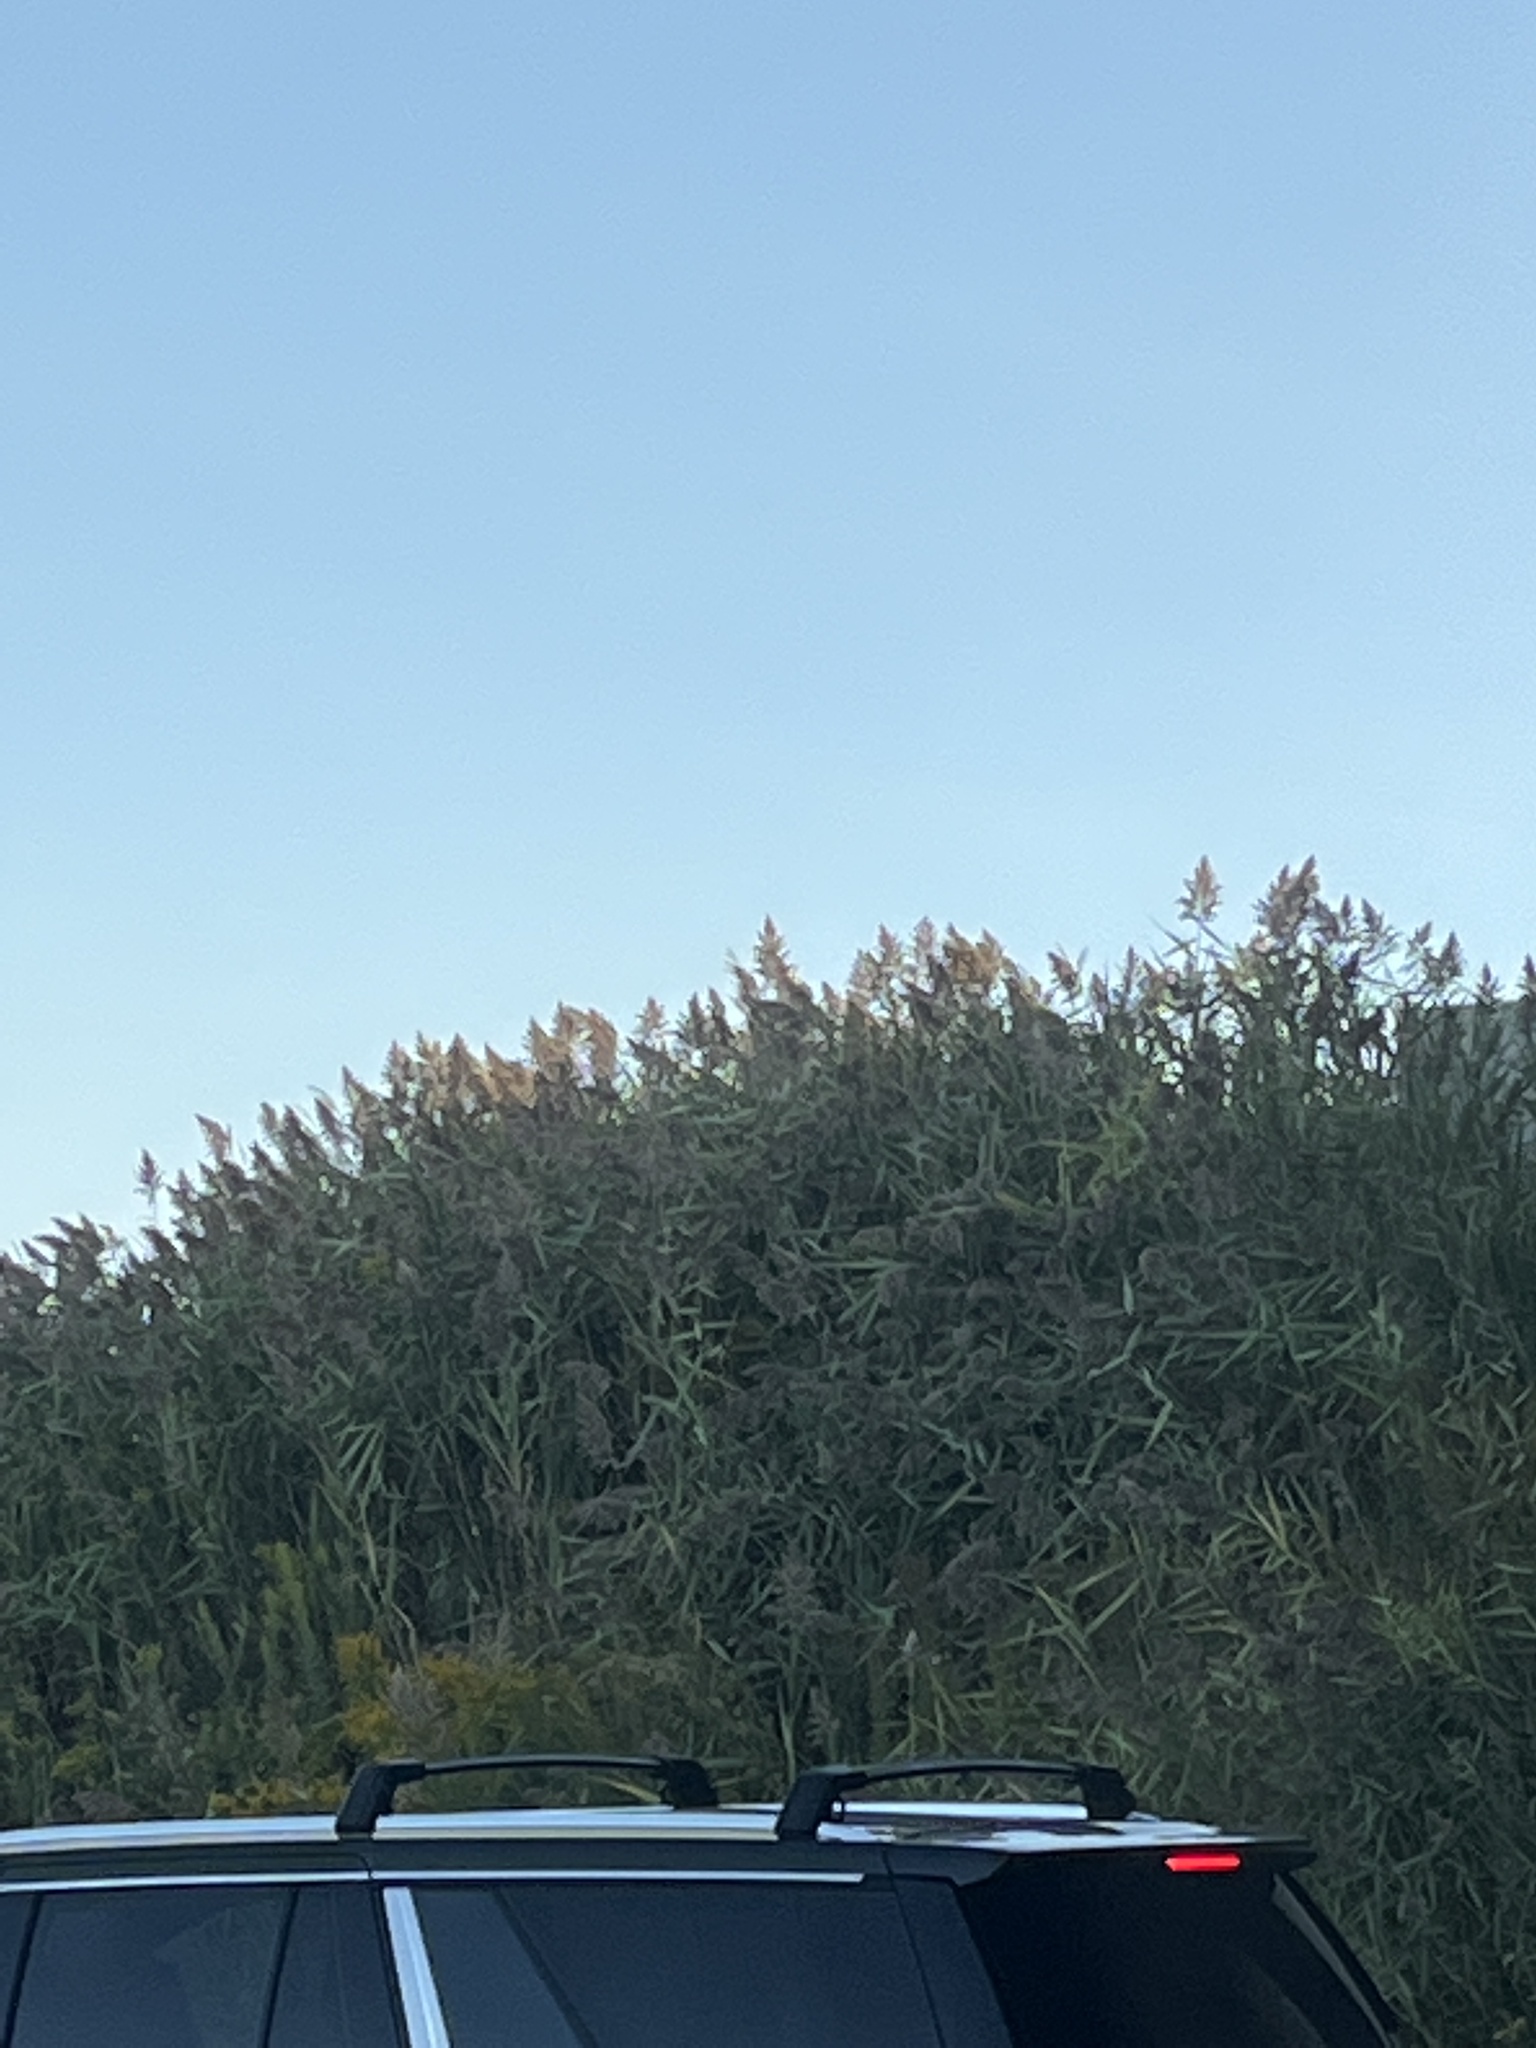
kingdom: Plantae
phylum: Tracheophyta
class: Liliopsida
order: Poales
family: Poaceae
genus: Phragmites
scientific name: Phragmites australis
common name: Common reed
